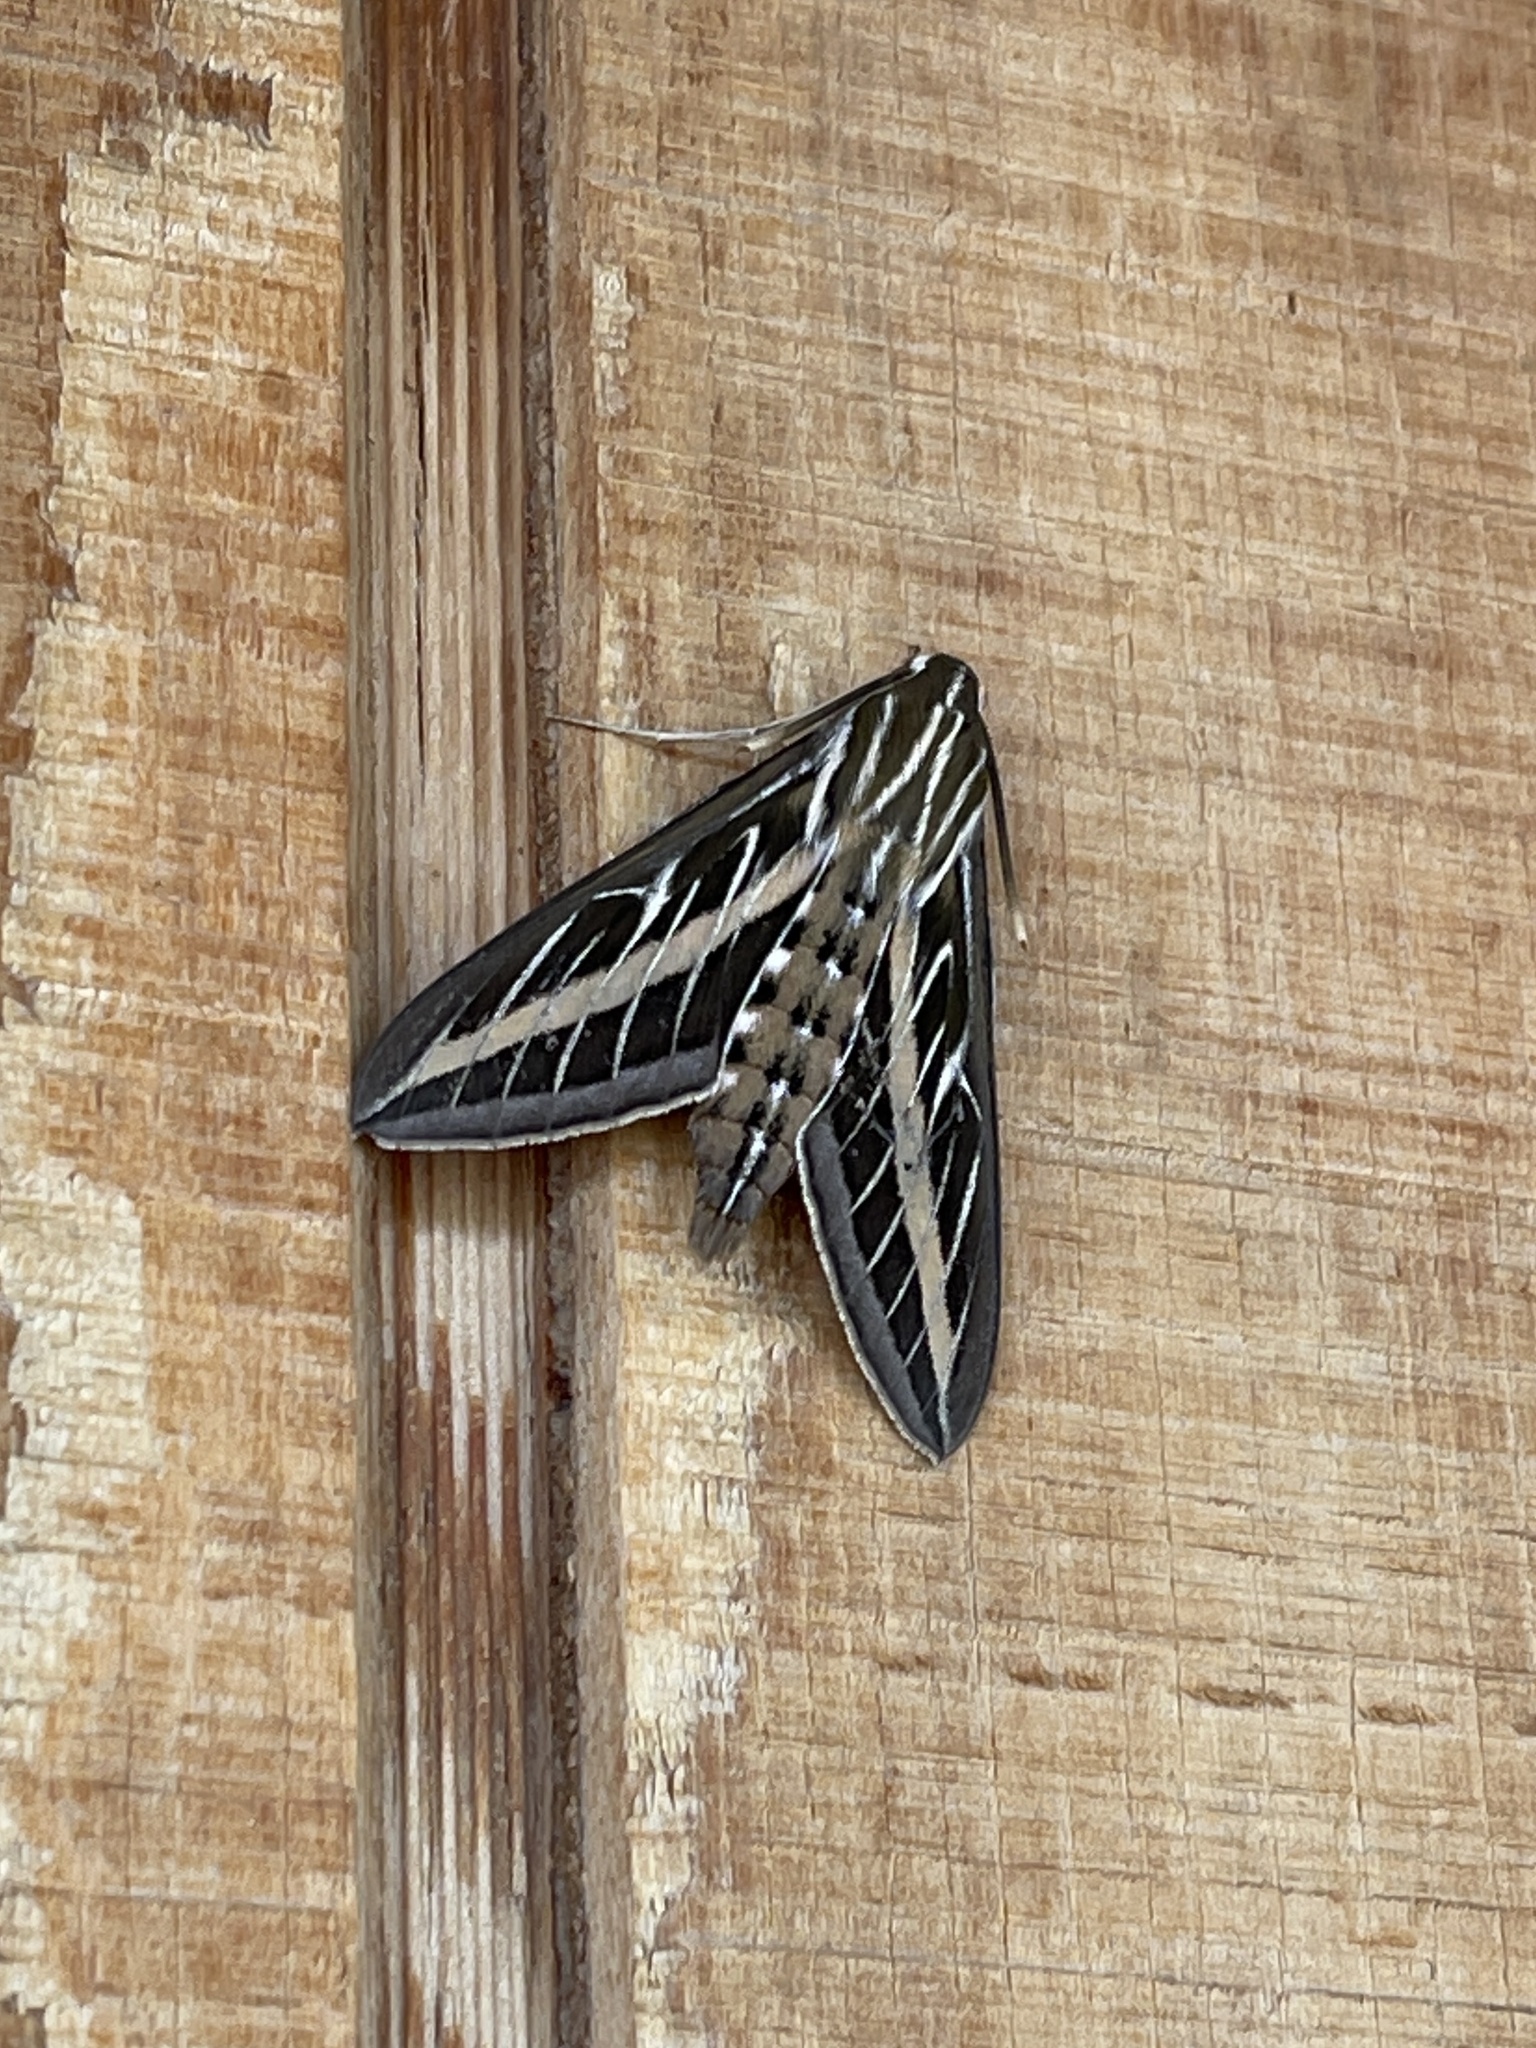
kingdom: Animalia
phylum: Arthropoda
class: Insecta
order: Lepidoptera
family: Sphingidae
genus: Hyles
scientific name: Hyles lineata
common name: White-lined sphinx
